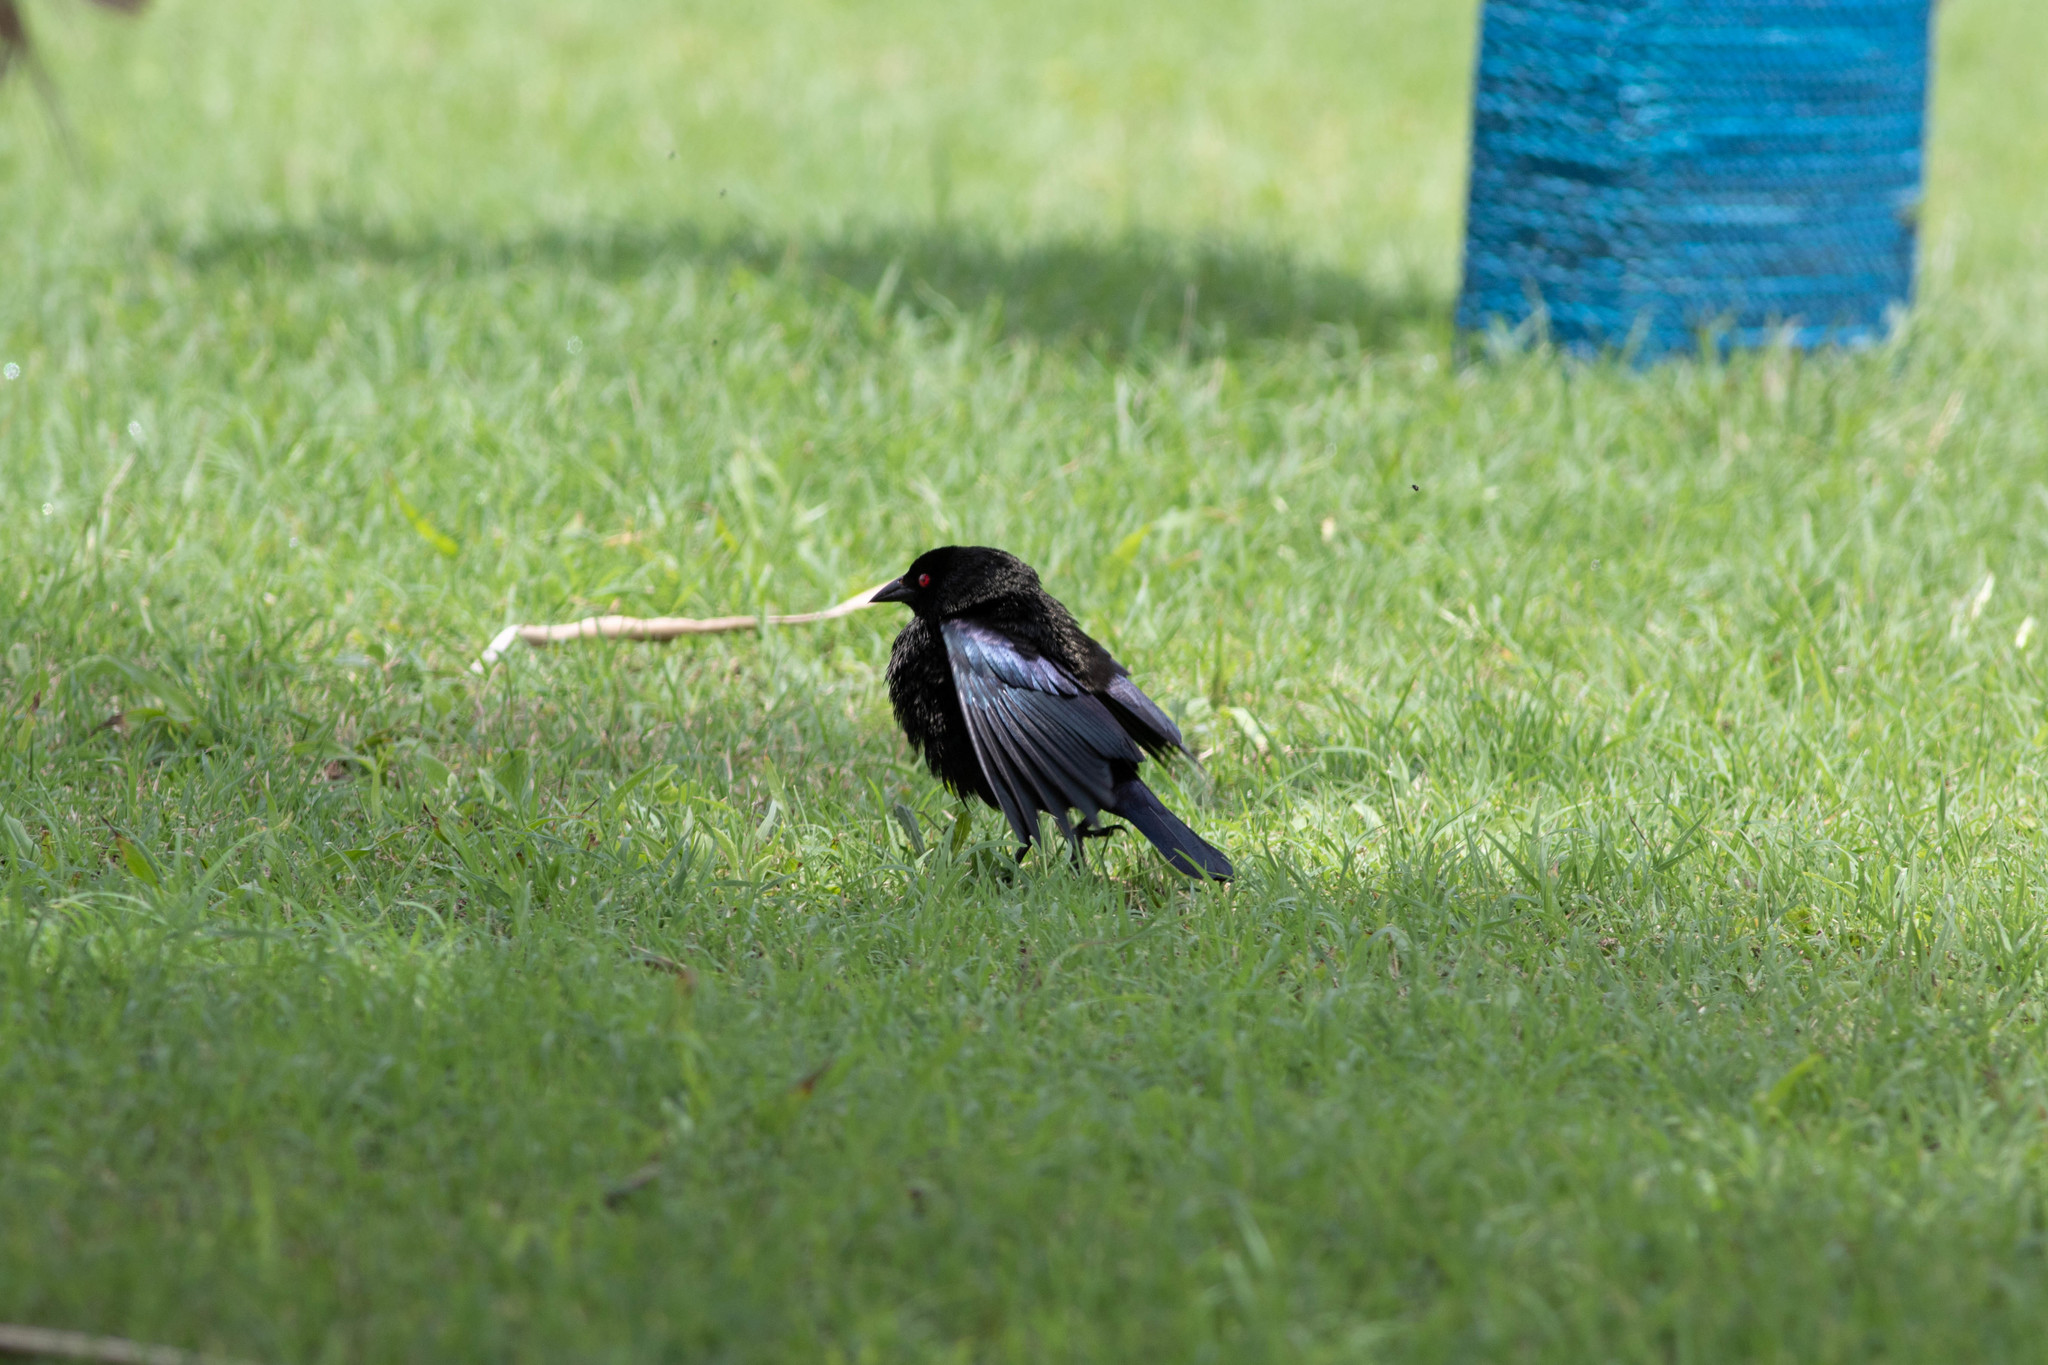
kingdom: Animalia
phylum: Chordata
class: Aves
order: Passeriformes
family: Icteridae
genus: Molothrus
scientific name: Molothrus aeneus
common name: Bronzed cowbird
